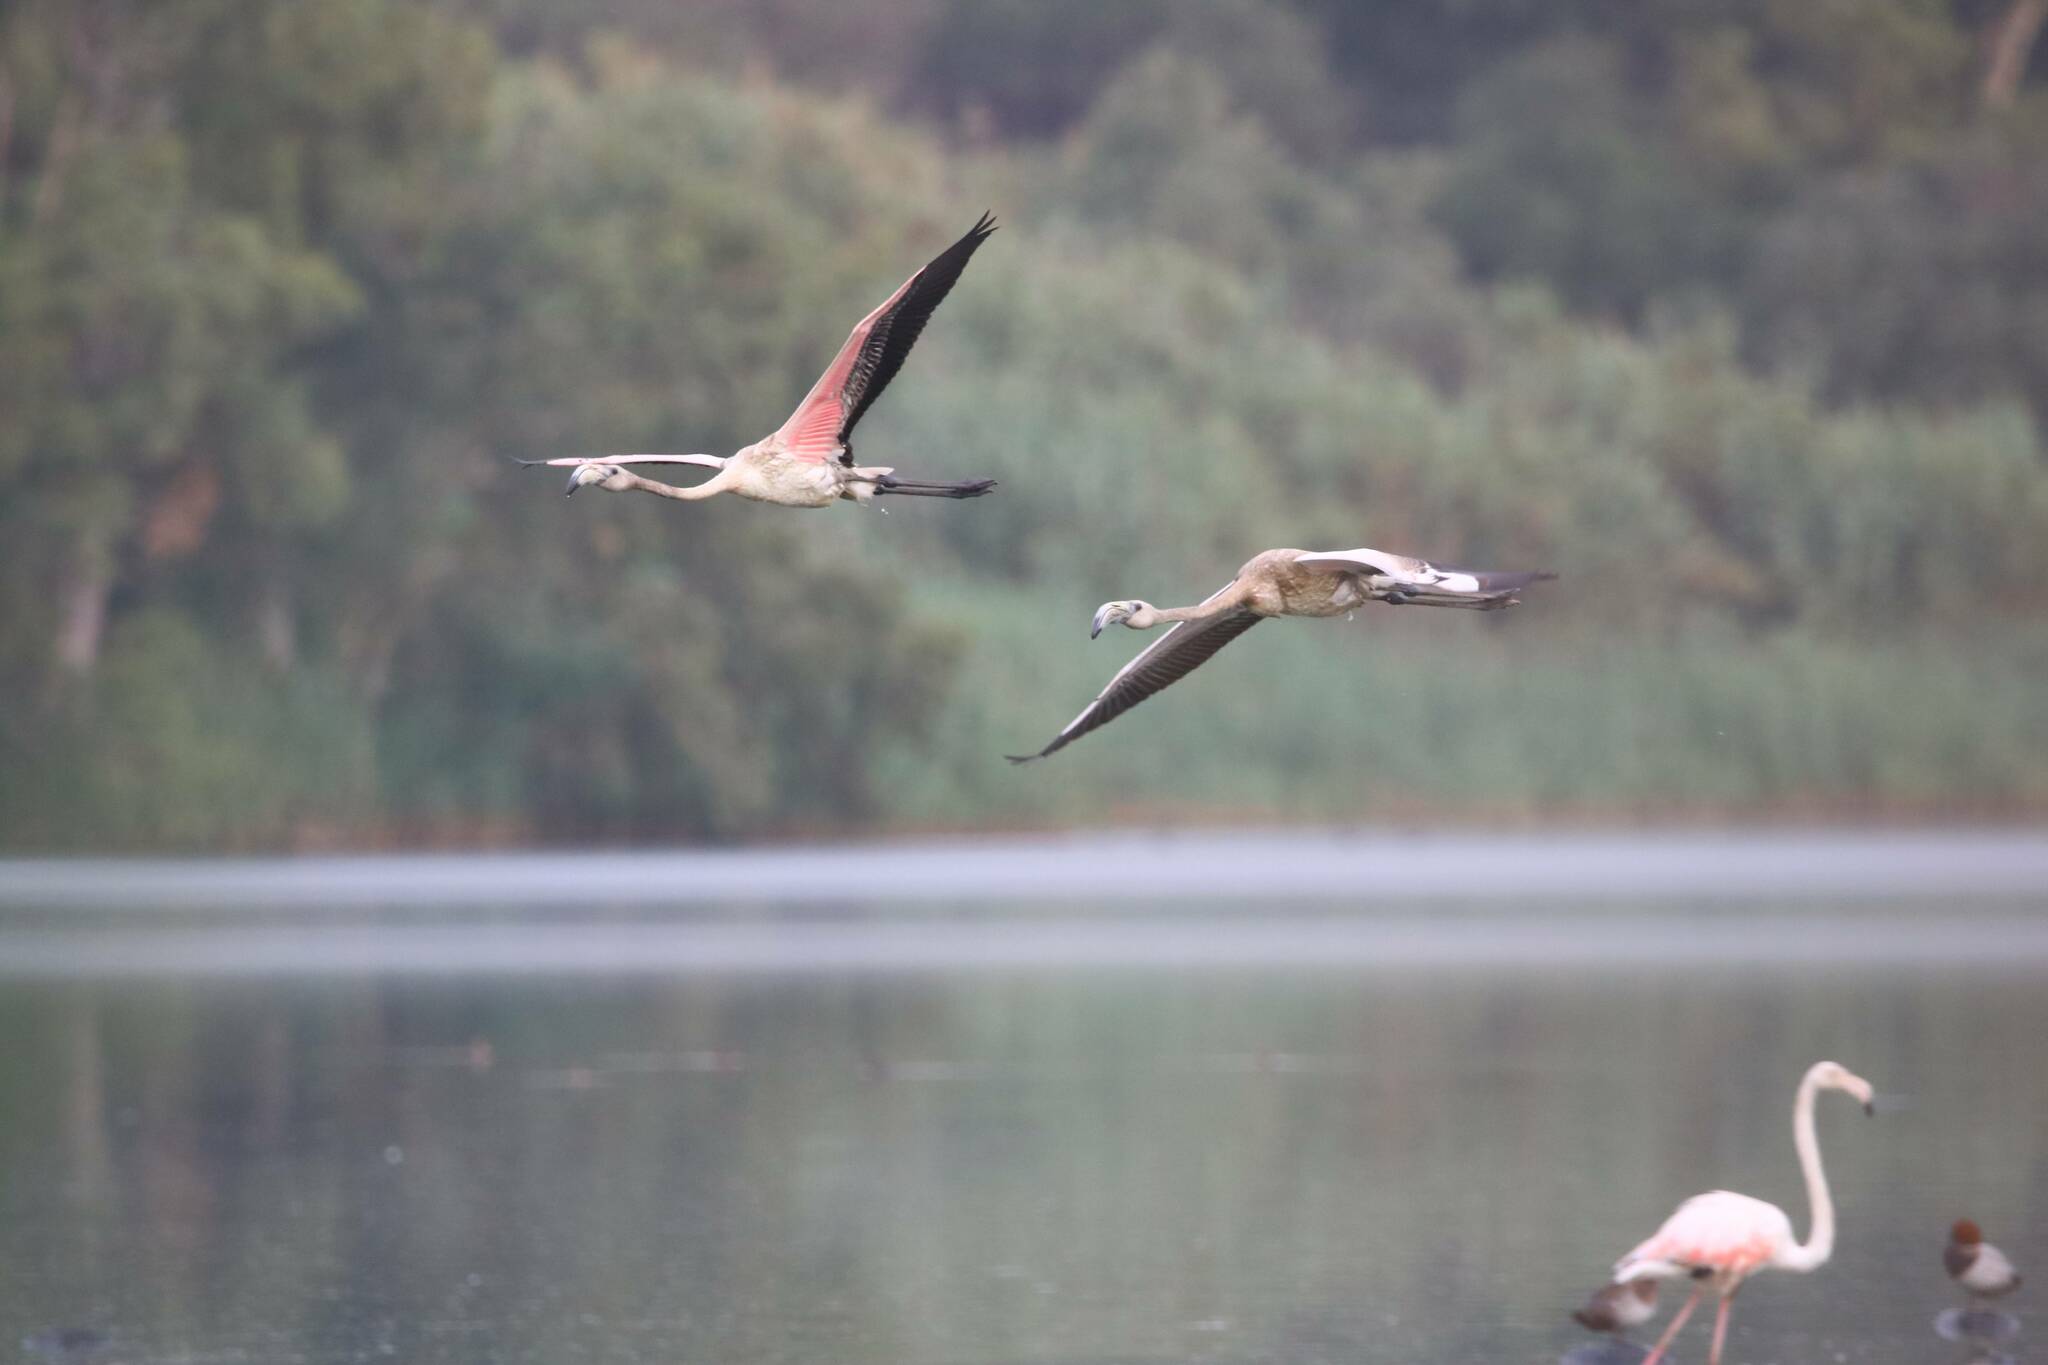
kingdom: Animalia
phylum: Chordata
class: Aves
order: Phoenicopteriformes
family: Phoenicopteridae
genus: Phoenicopterus
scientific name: Phoenicopterus roseus
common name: Greater flamingo
